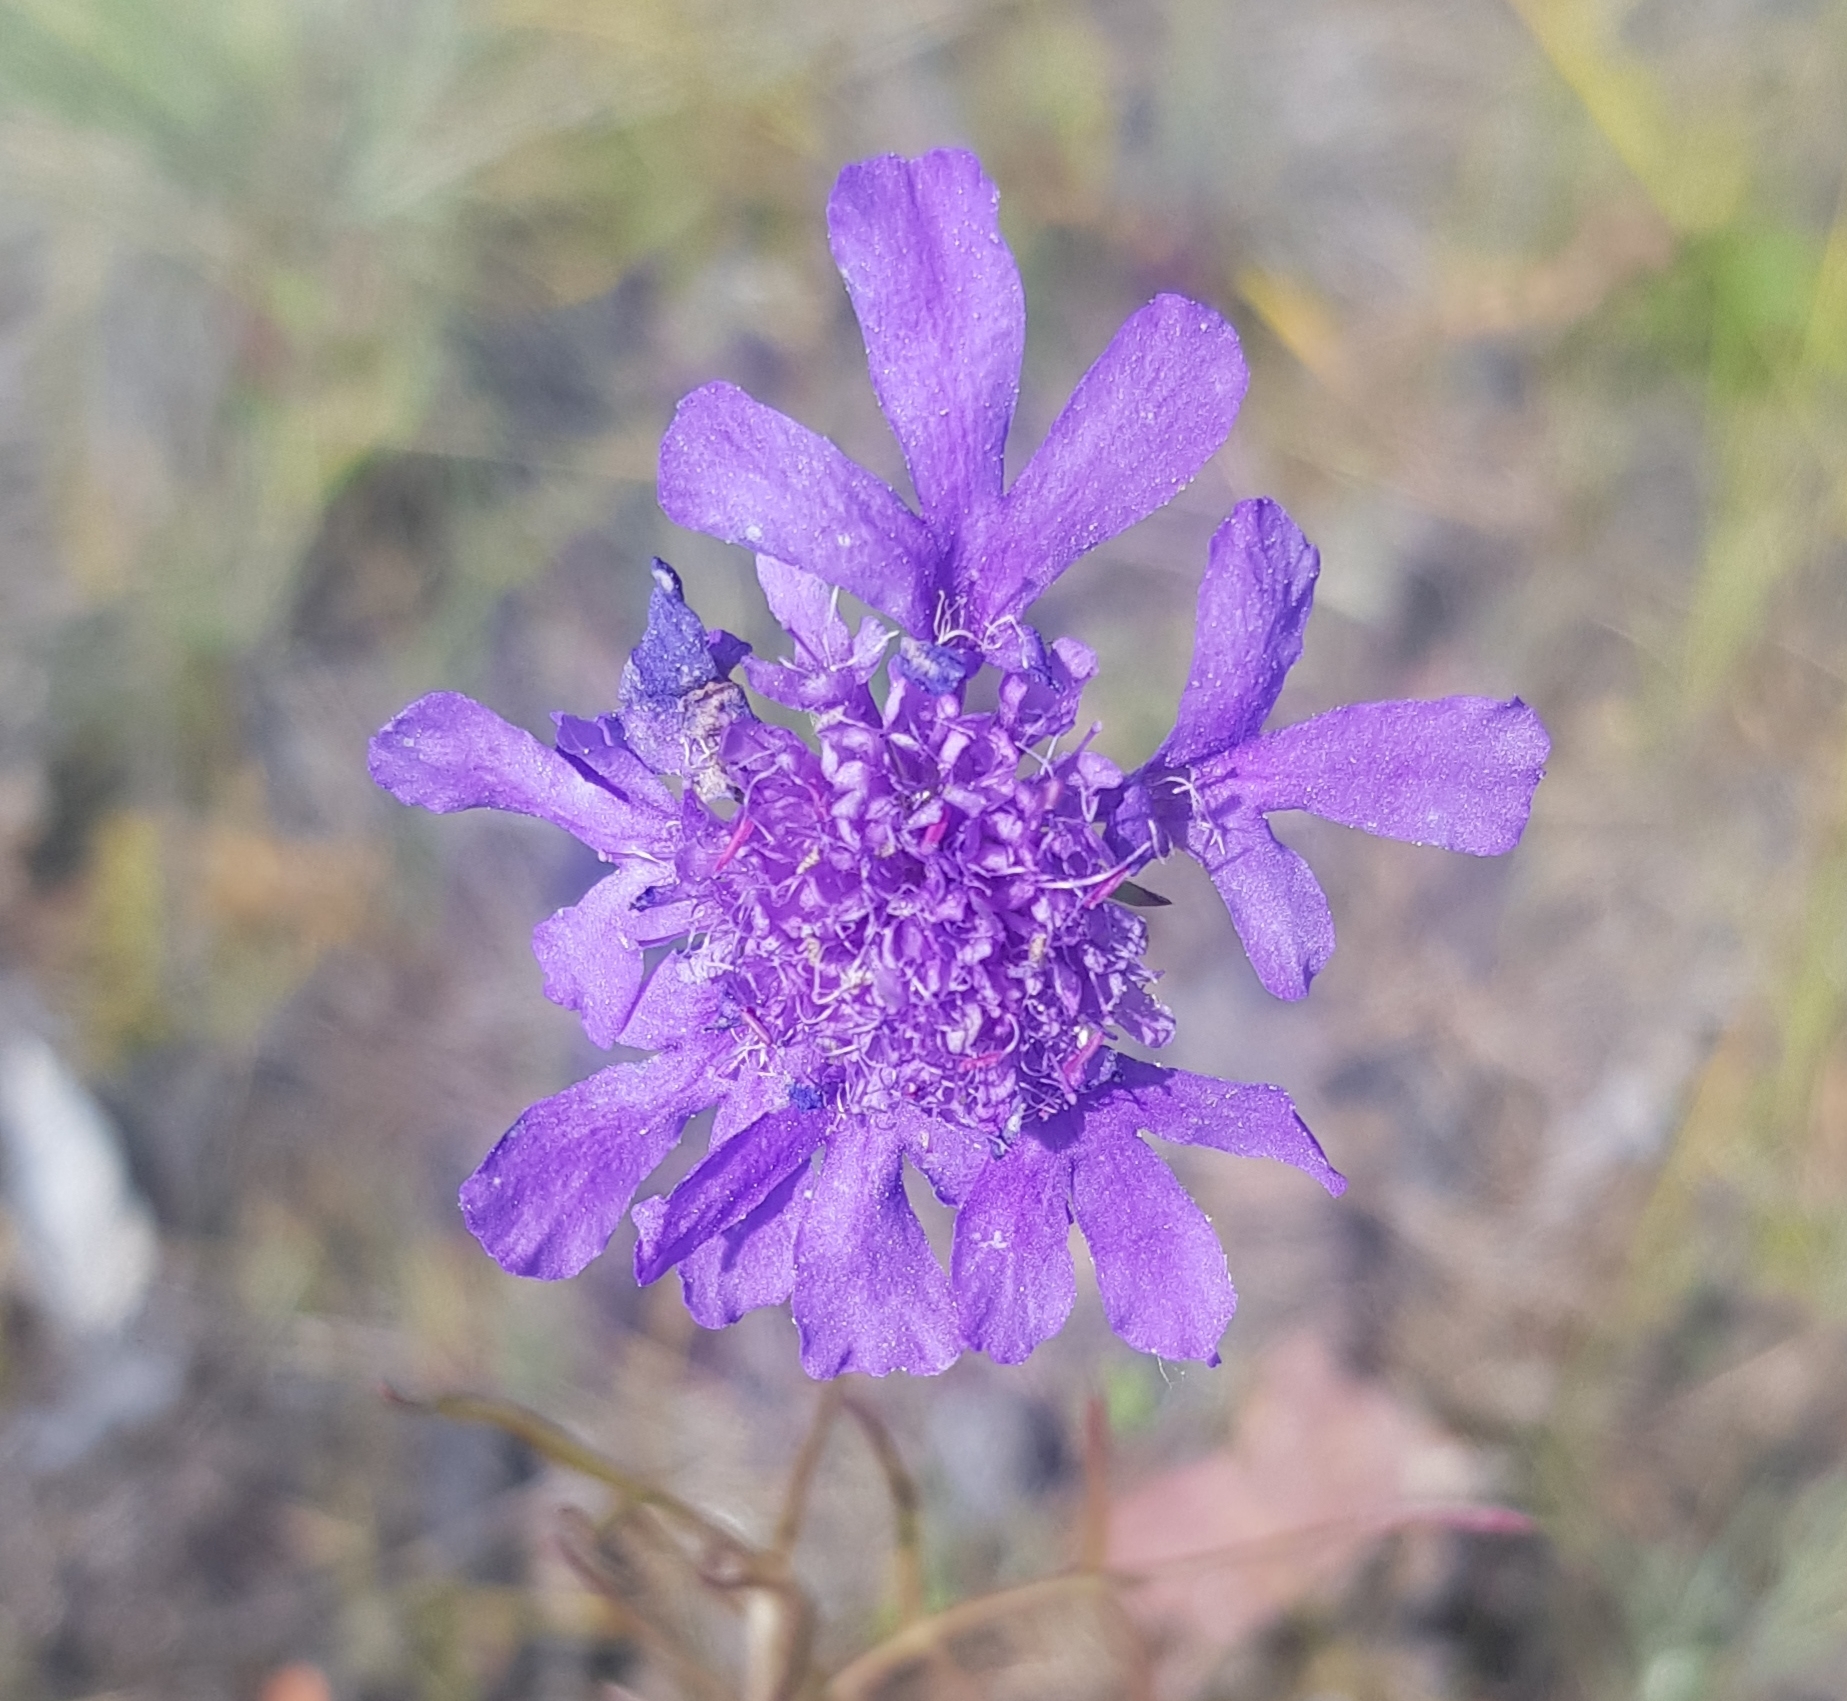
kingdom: Plantae
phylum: Tracheophyta
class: Magnoliopsida
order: Dipsacales
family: Caprifoliaceae
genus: Scabiosa
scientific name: Scabiosa comosa
